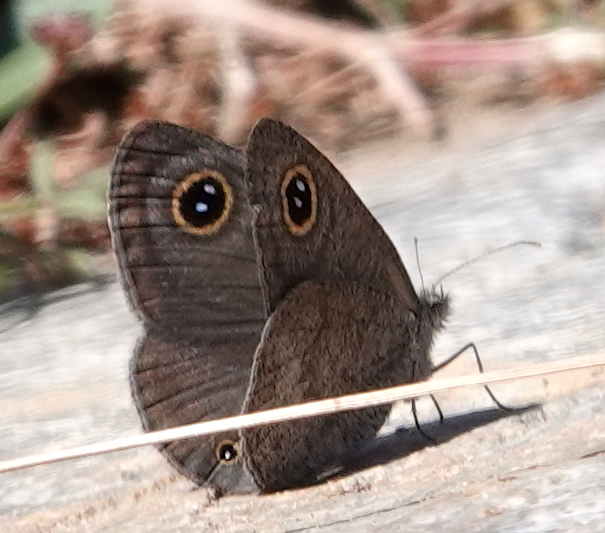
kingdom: Animalia
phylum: Arthropoda
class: Insecta
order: Lepidoptera
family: Nymphalidae
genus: Ypthima
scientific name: Ypthima asterope
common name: African ringlet
